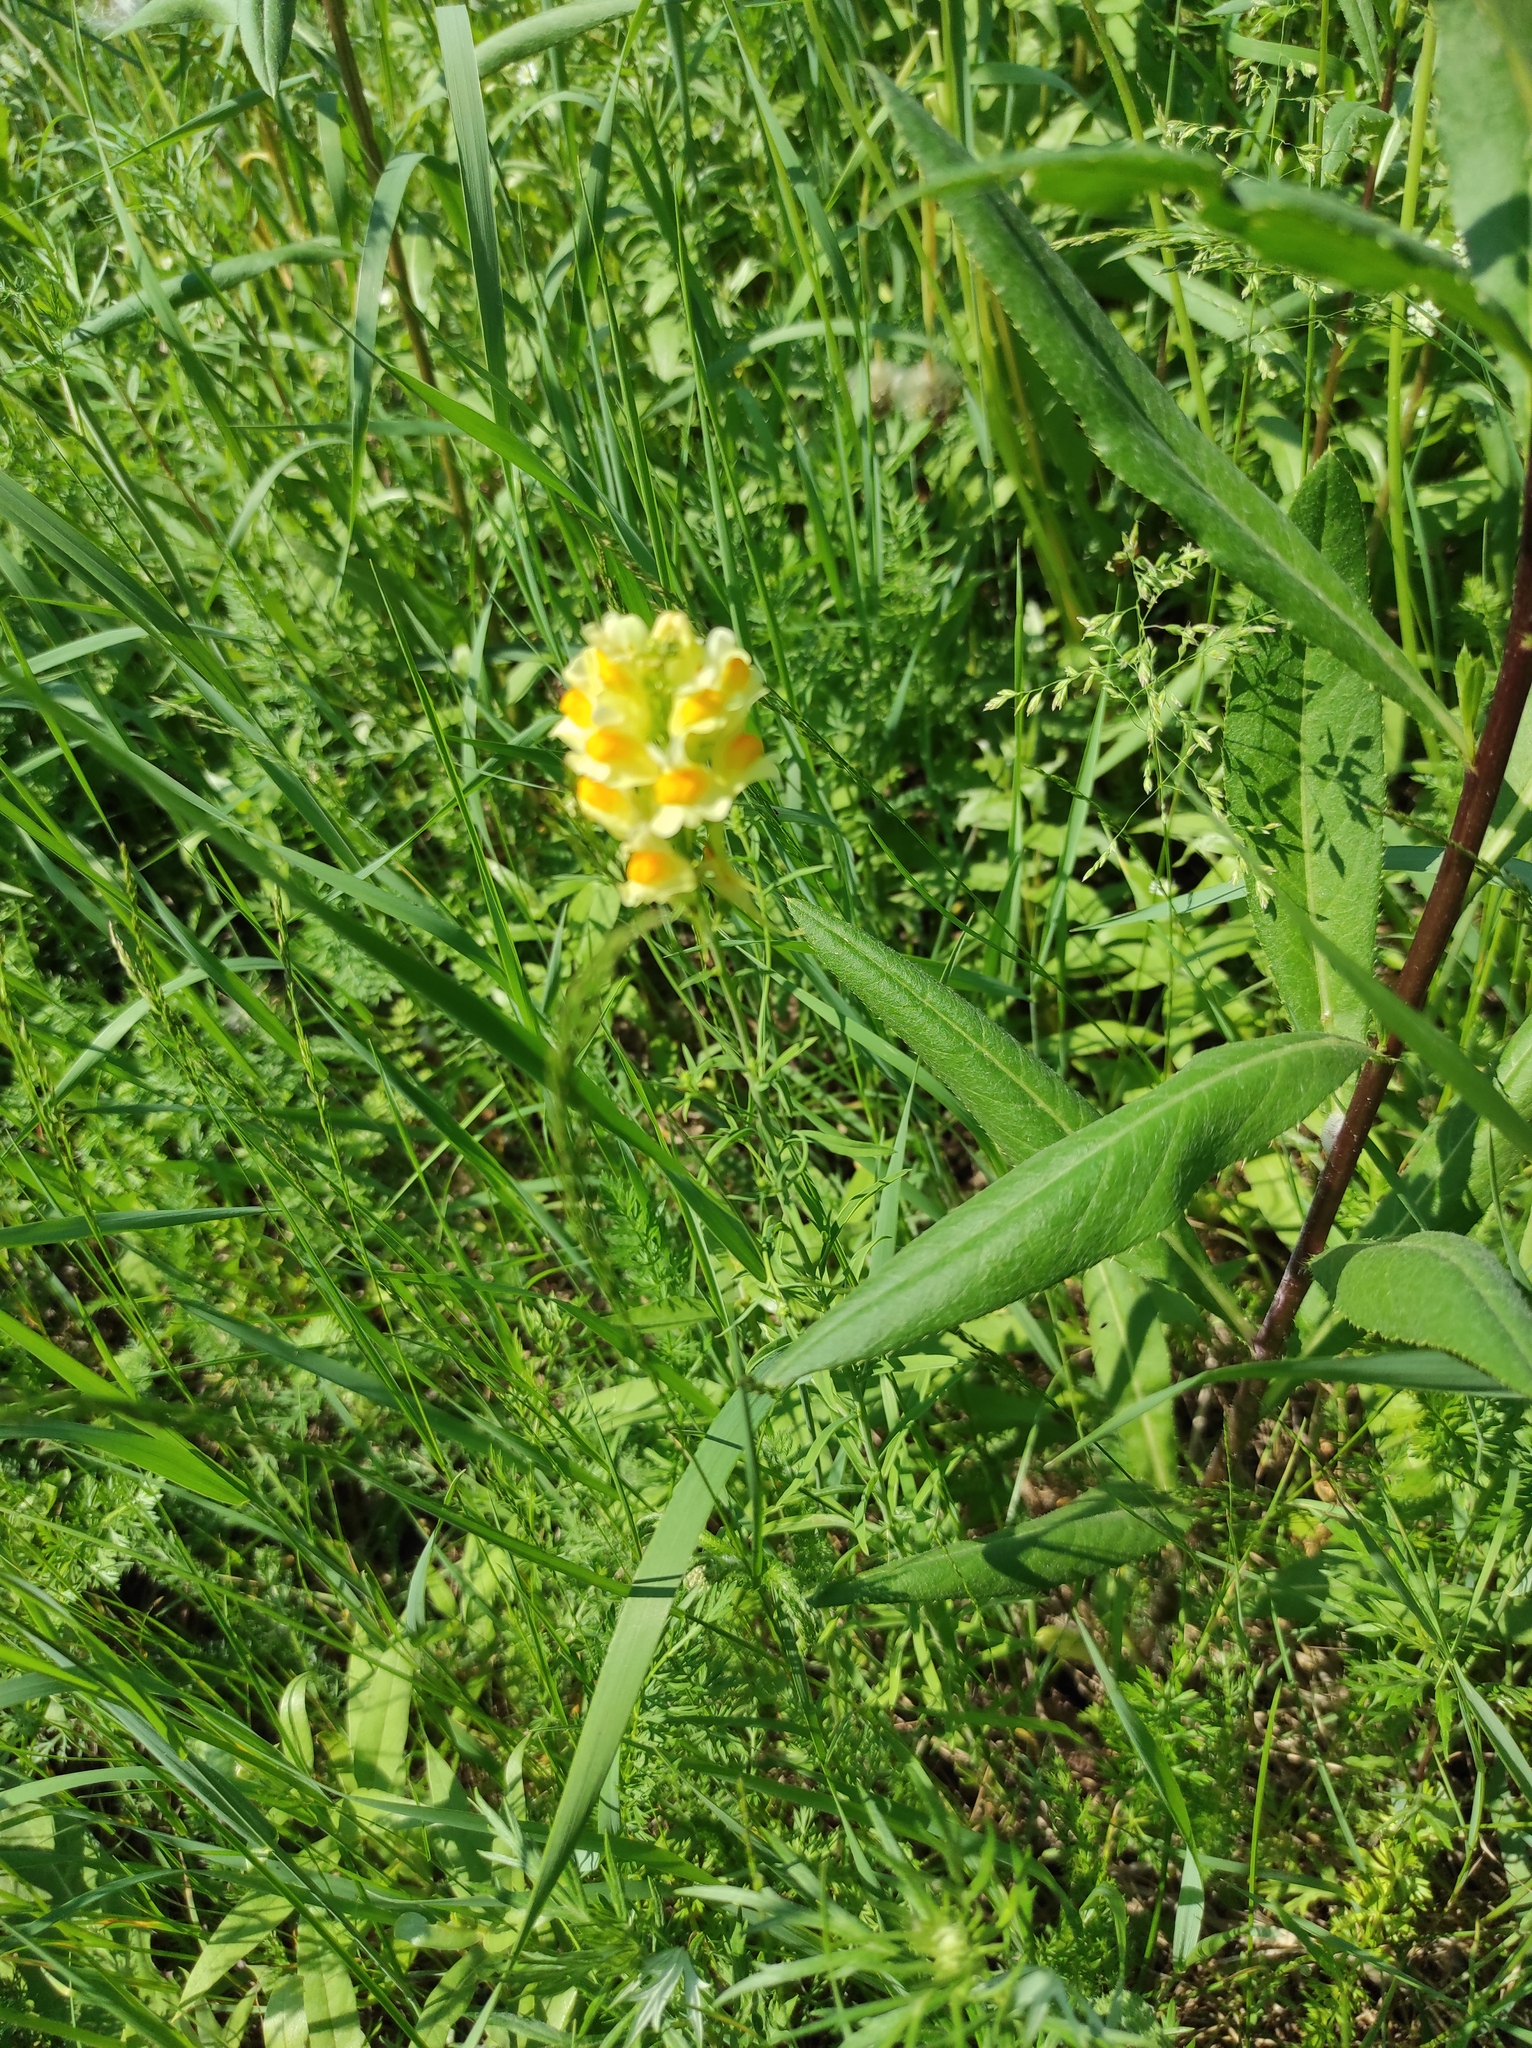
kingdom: Plantae
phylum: Tracheophyta
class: Magnoliopsida
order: Lamiales
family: Plantaginaceae
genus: Linaria
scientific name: Linaria vulgaris
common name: Butter and eggs
